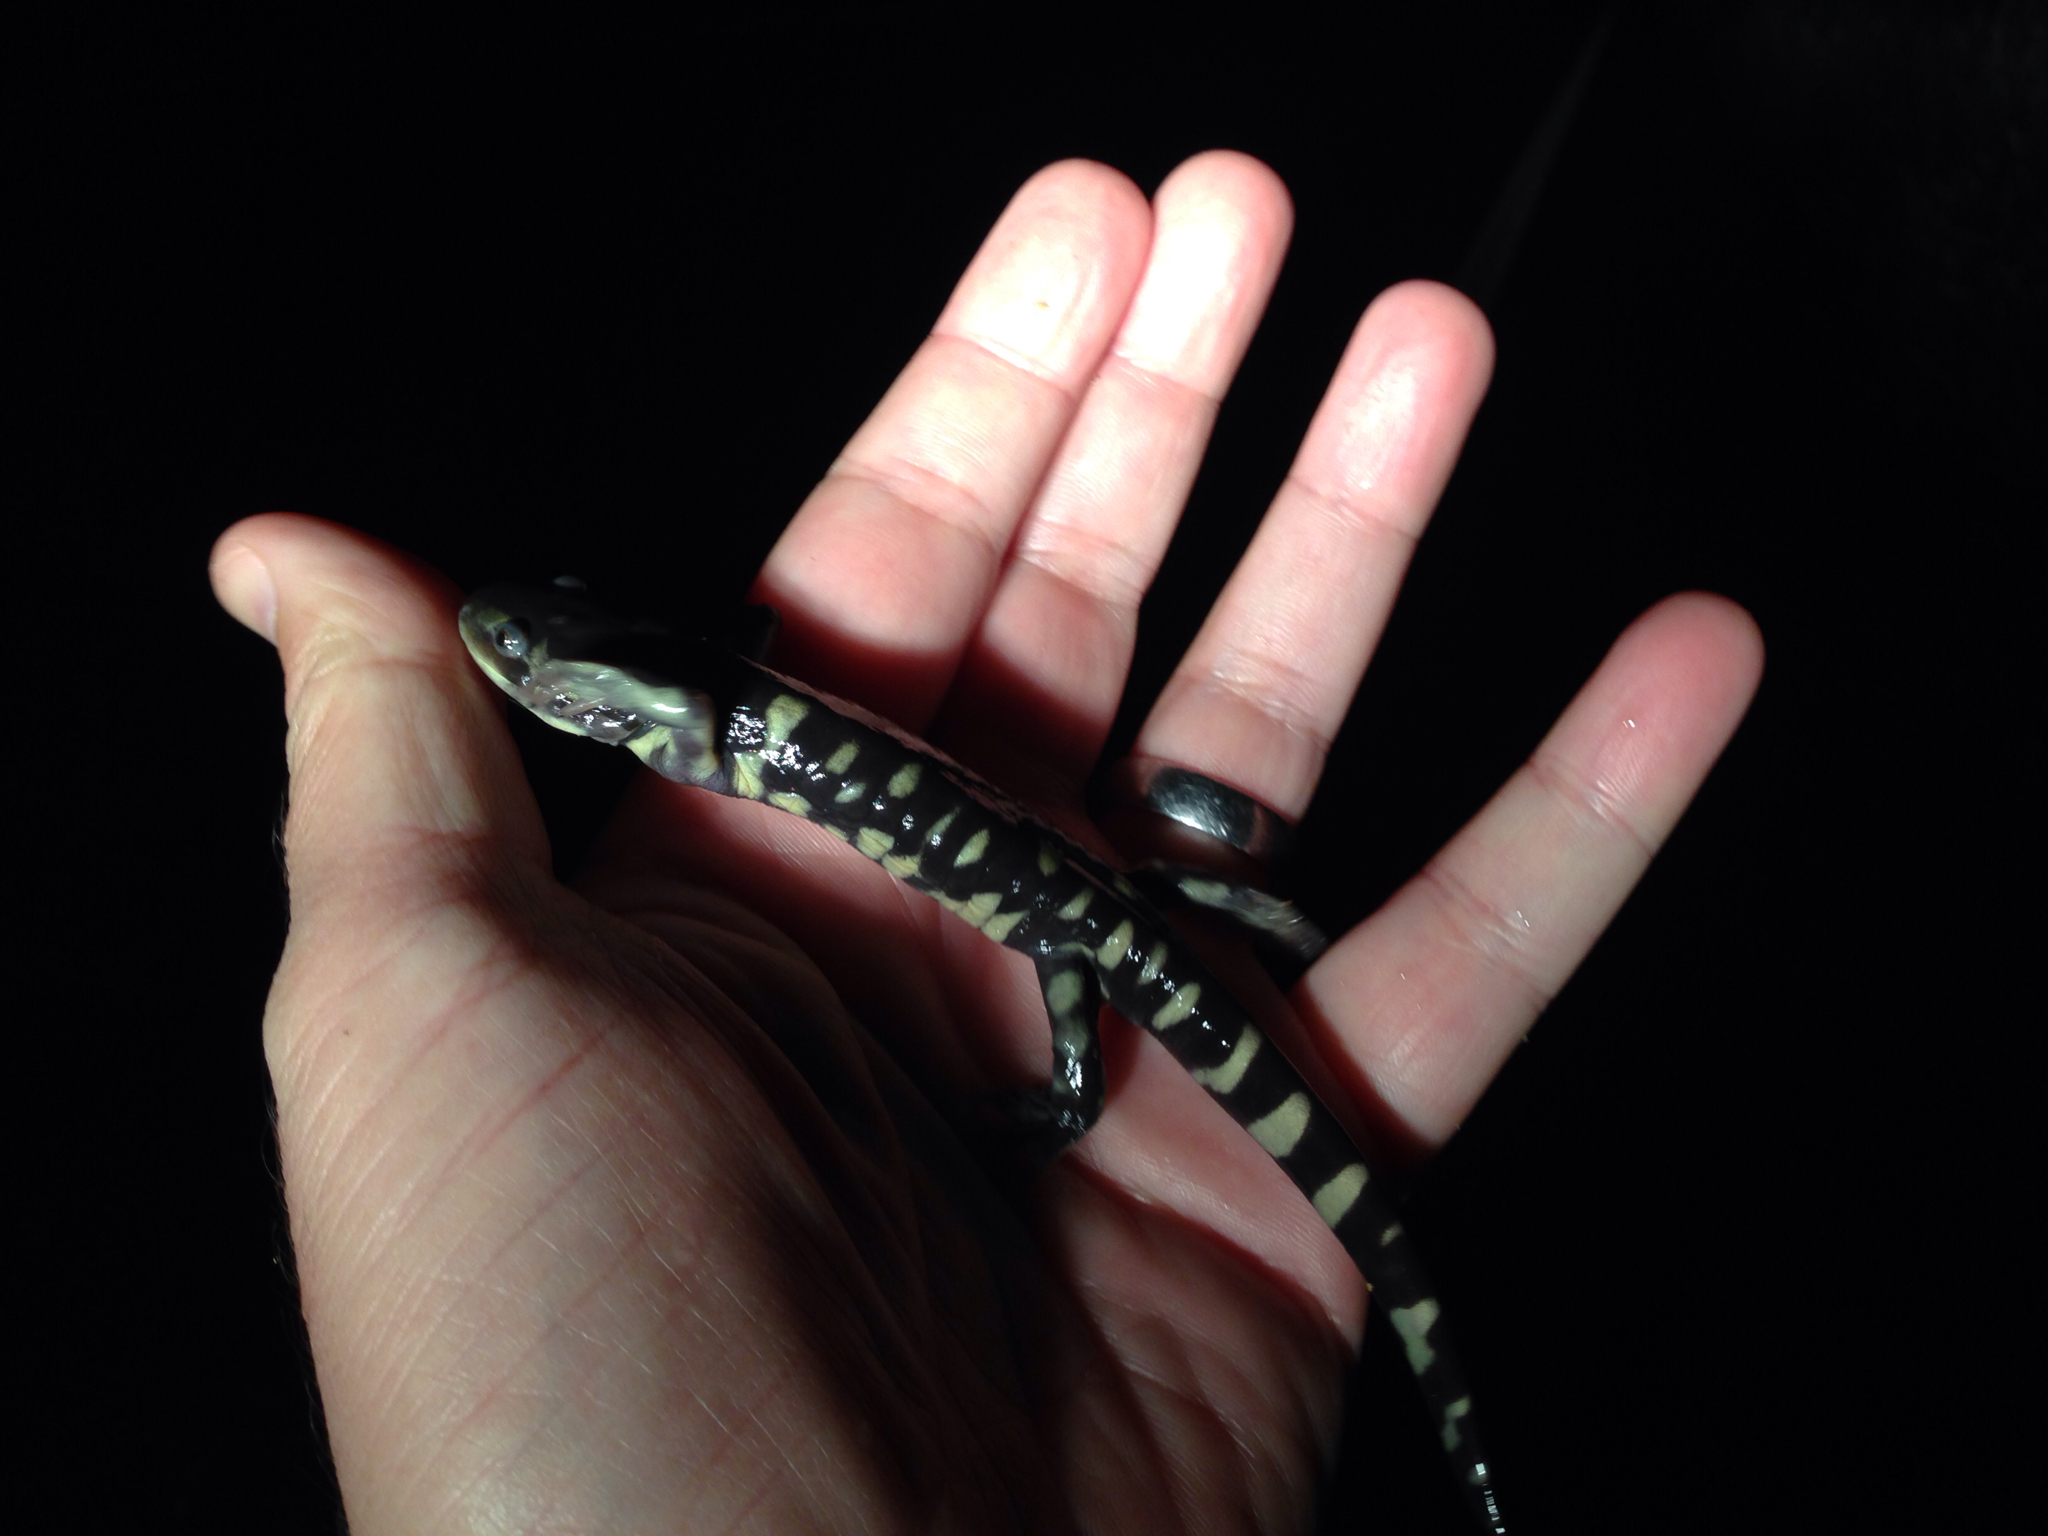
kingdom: Animalia
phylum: Chordata
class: Amphibia
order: Caudata
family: Ambystomatidae
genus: Ambystoma
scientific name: Ambystoma mavortium
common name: Western tiger salamander
